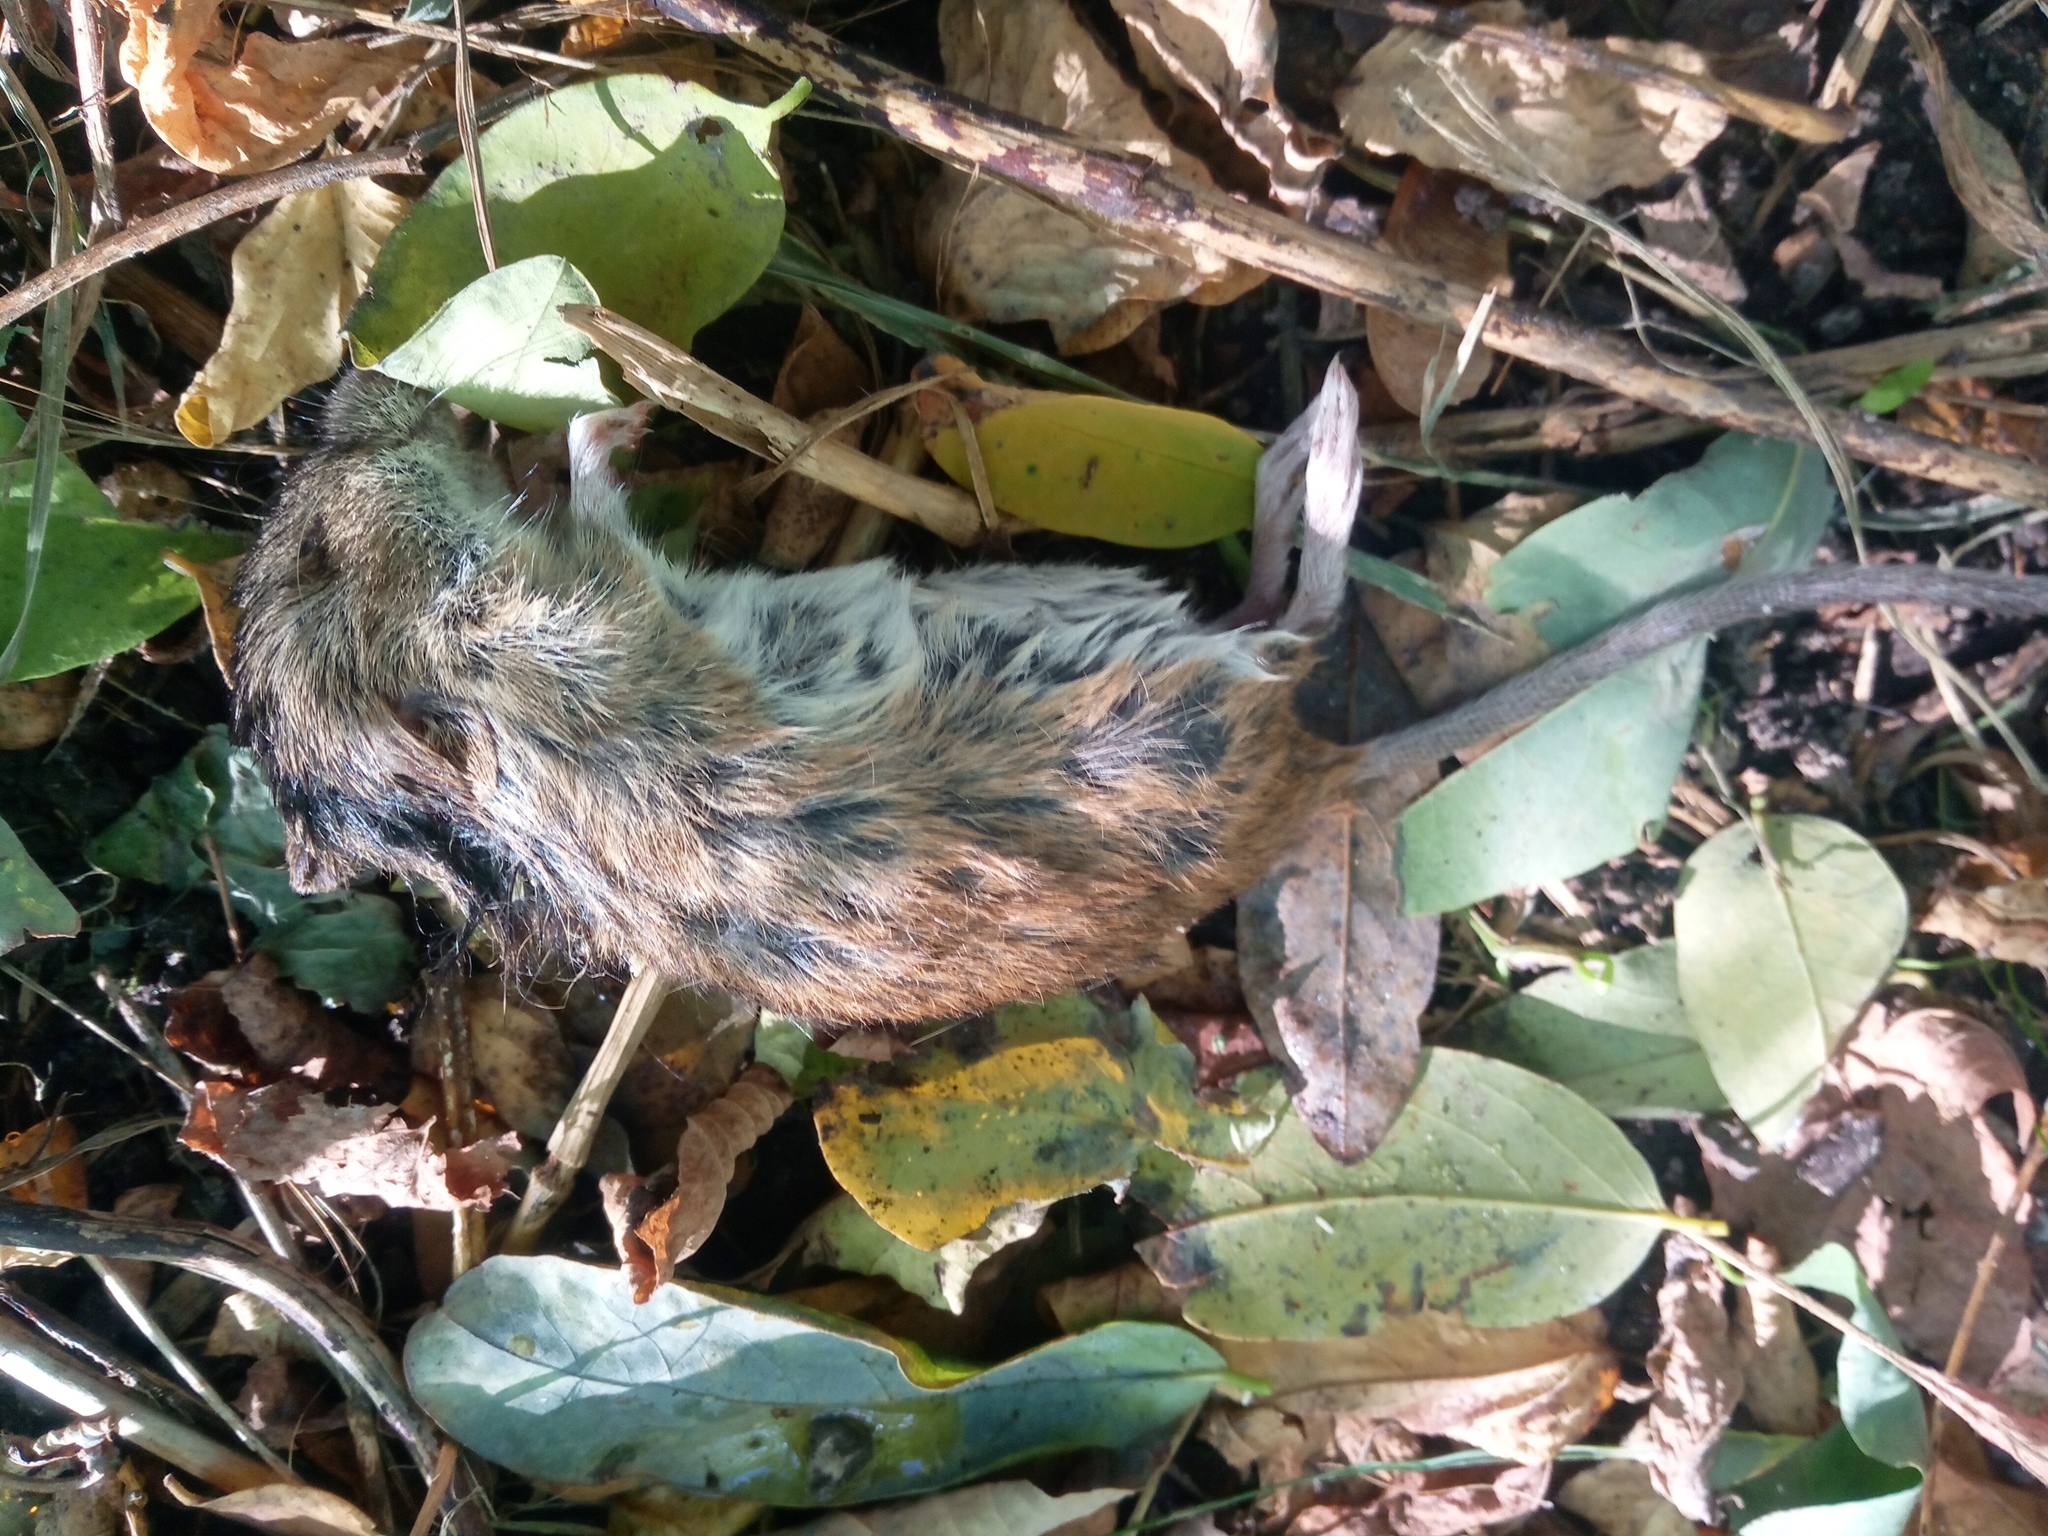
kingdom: Animalia
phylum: Chordata
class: Mammalia
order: Rodentia
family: Muridae
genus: Apodemus
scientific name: Apodemus agrarius
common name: Striped field mouse
